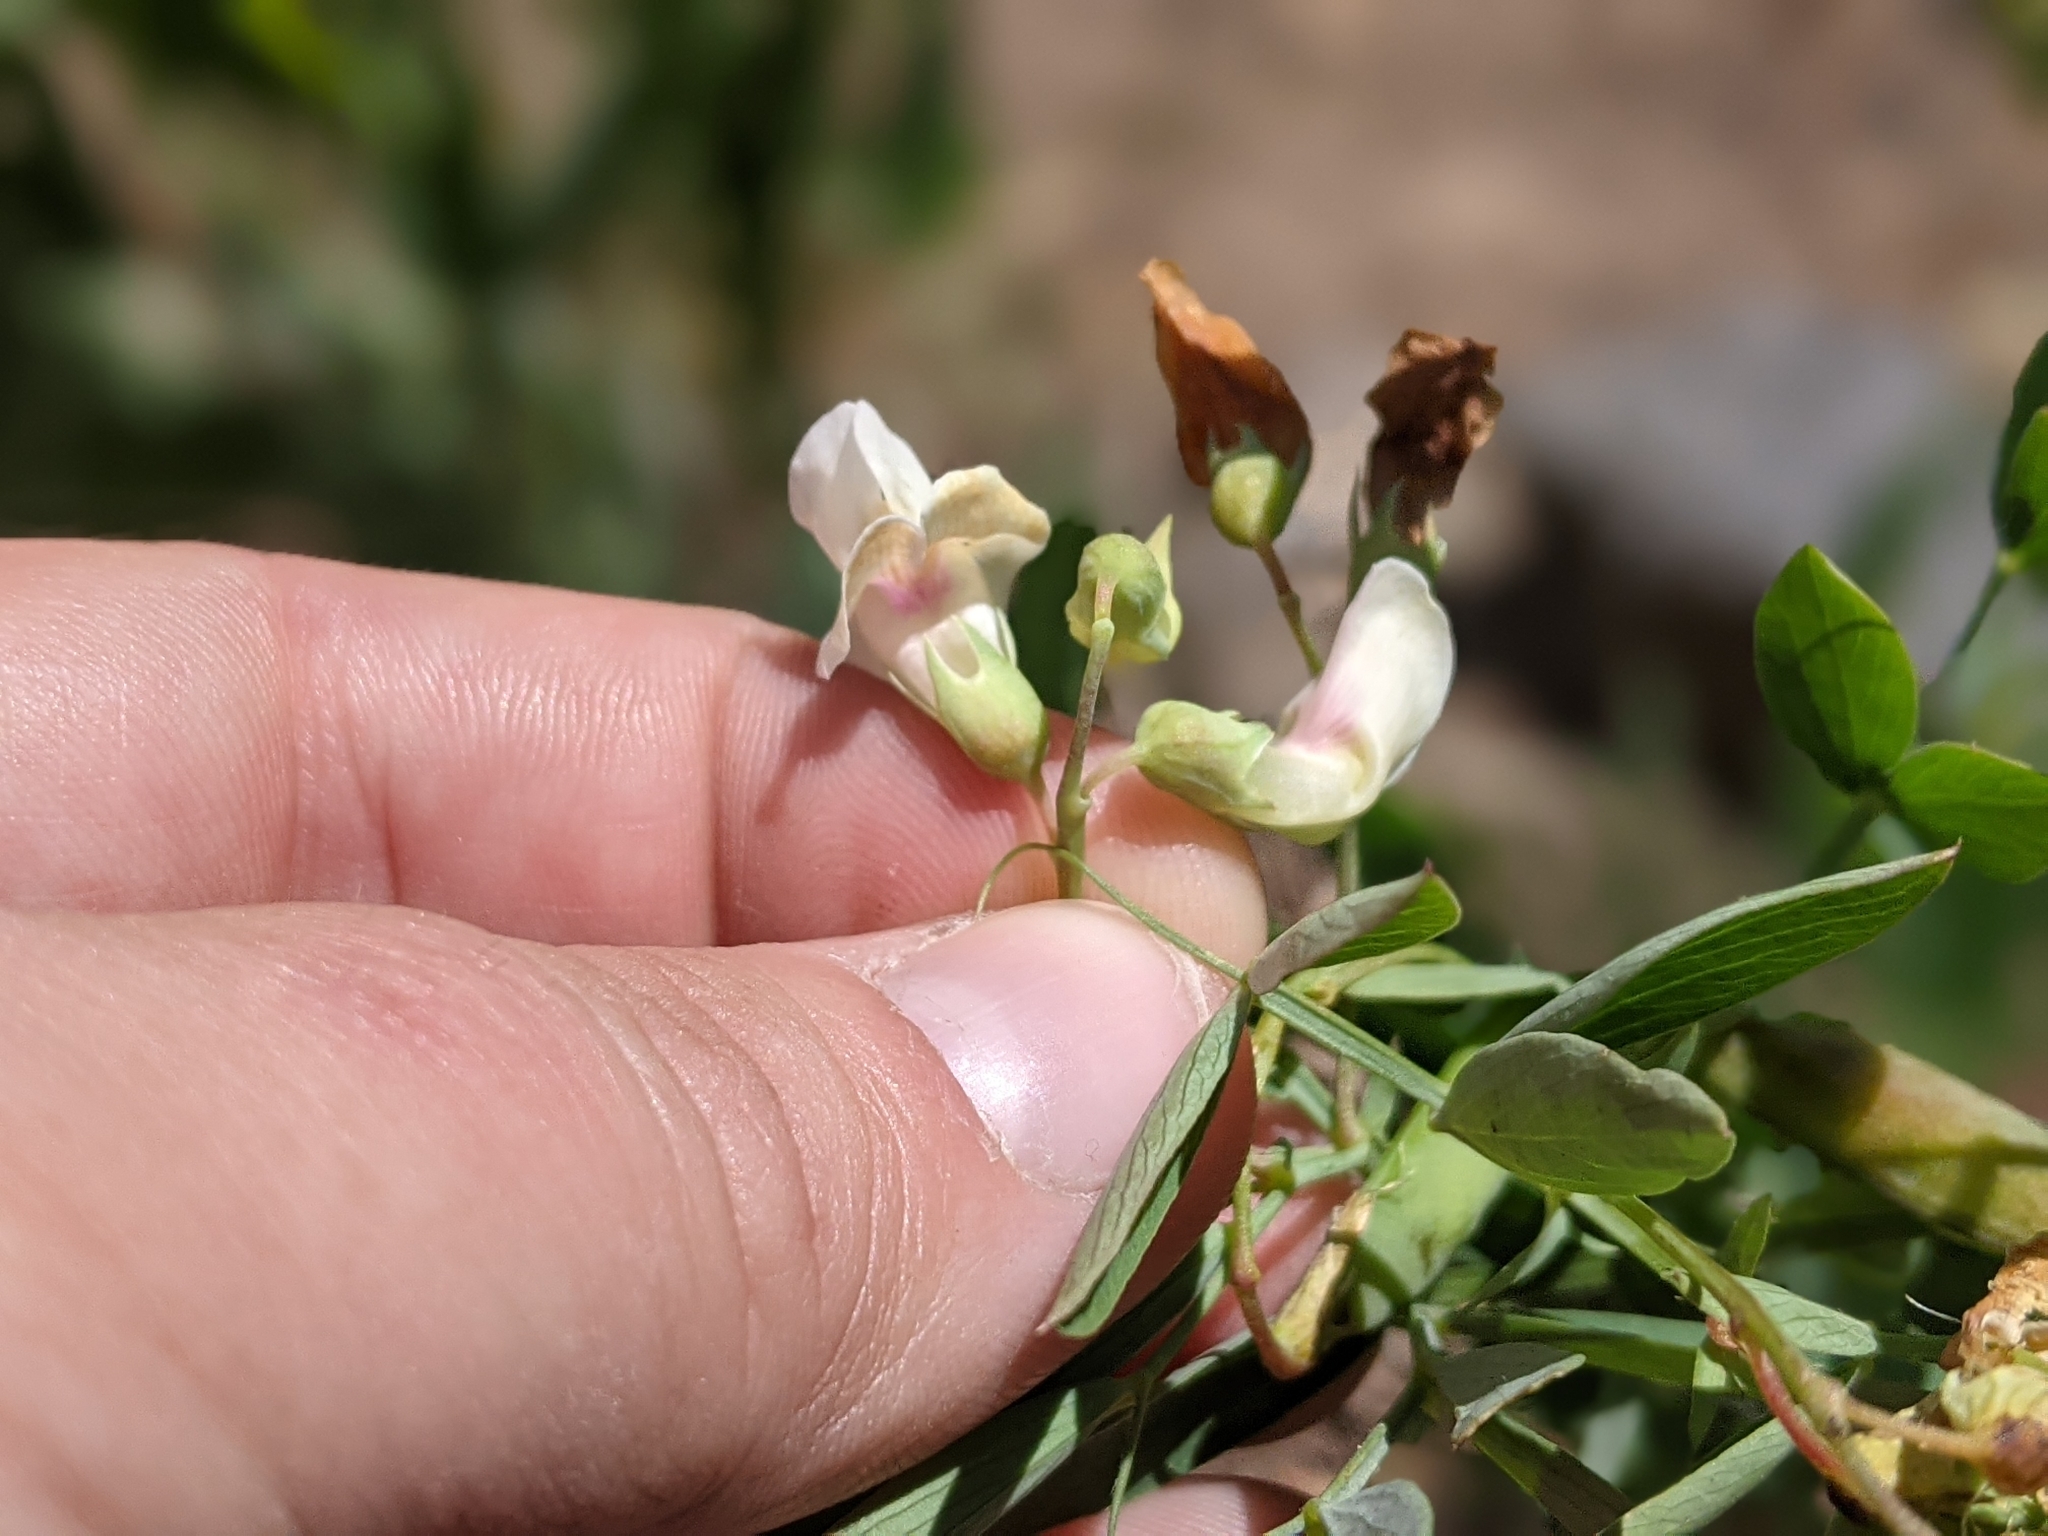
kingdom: Plantae
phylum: Tracheophyta
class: Magnoliopsida
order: Fabales
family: Fabaceae
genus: Lathyrus
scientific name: Lathyrus lanszwertii
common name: Lanszwert's vetchling
